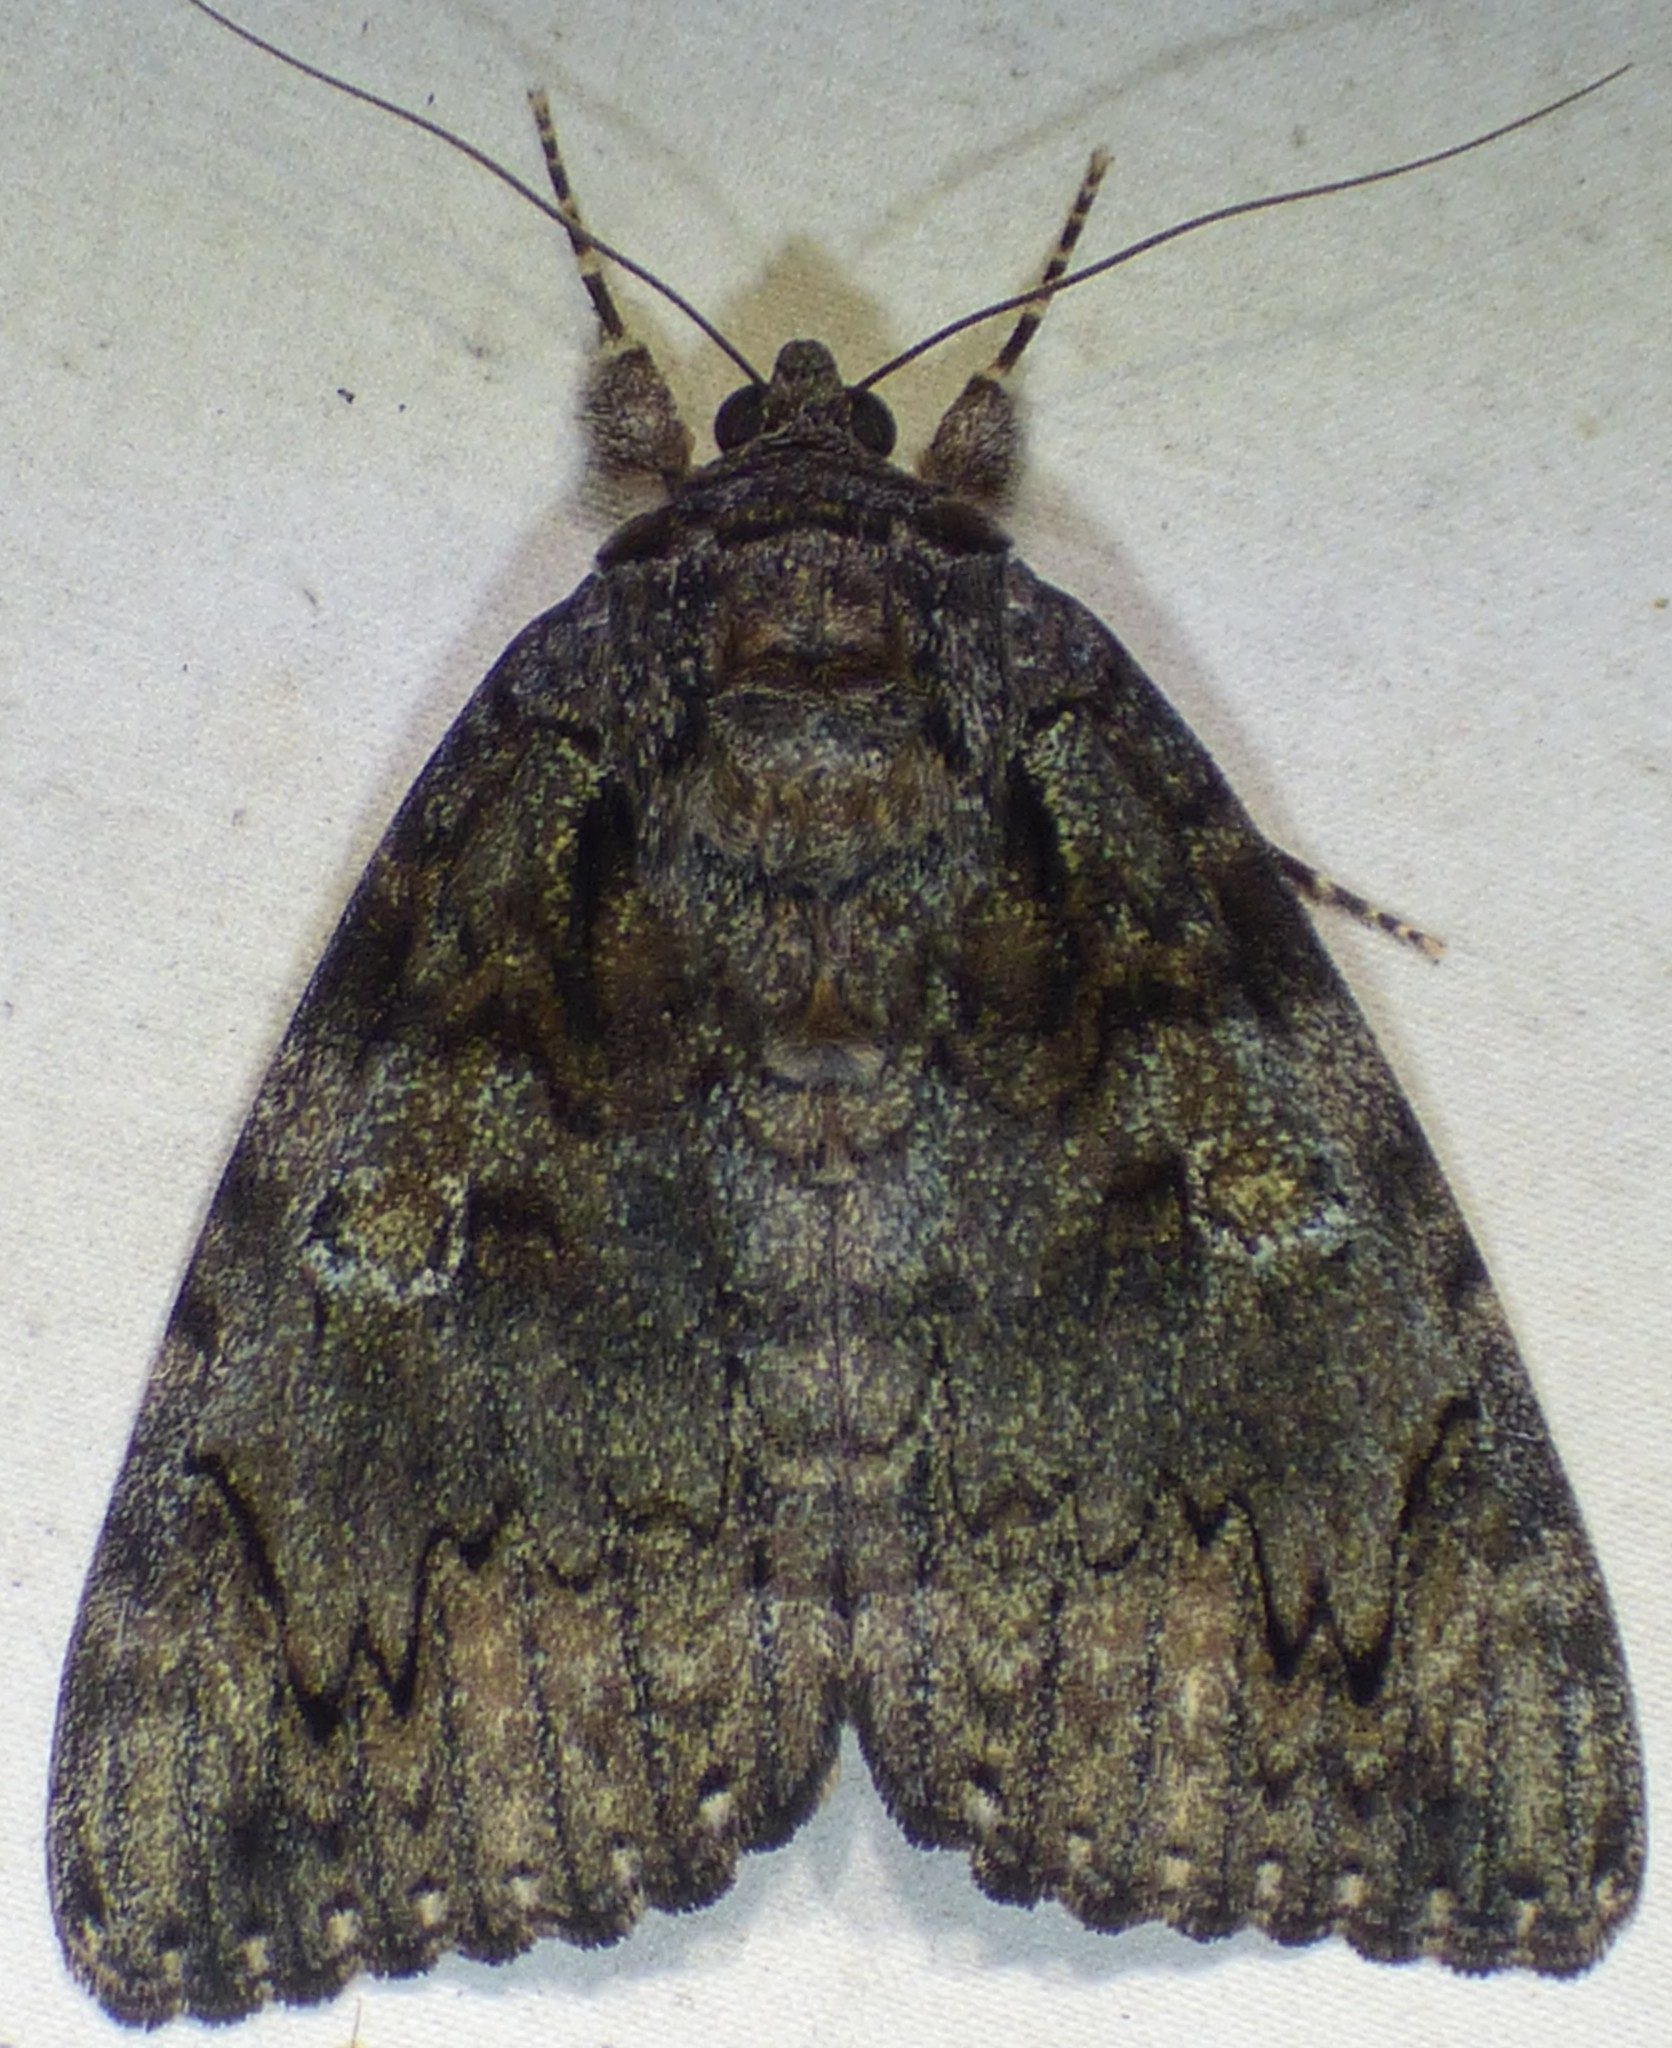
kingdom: Animalia
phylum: Arthropoda
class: Insecta
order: Lepidoptera
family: Erebidae
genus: Catocala
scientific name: Catocala ilia
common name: Ilia underwing
